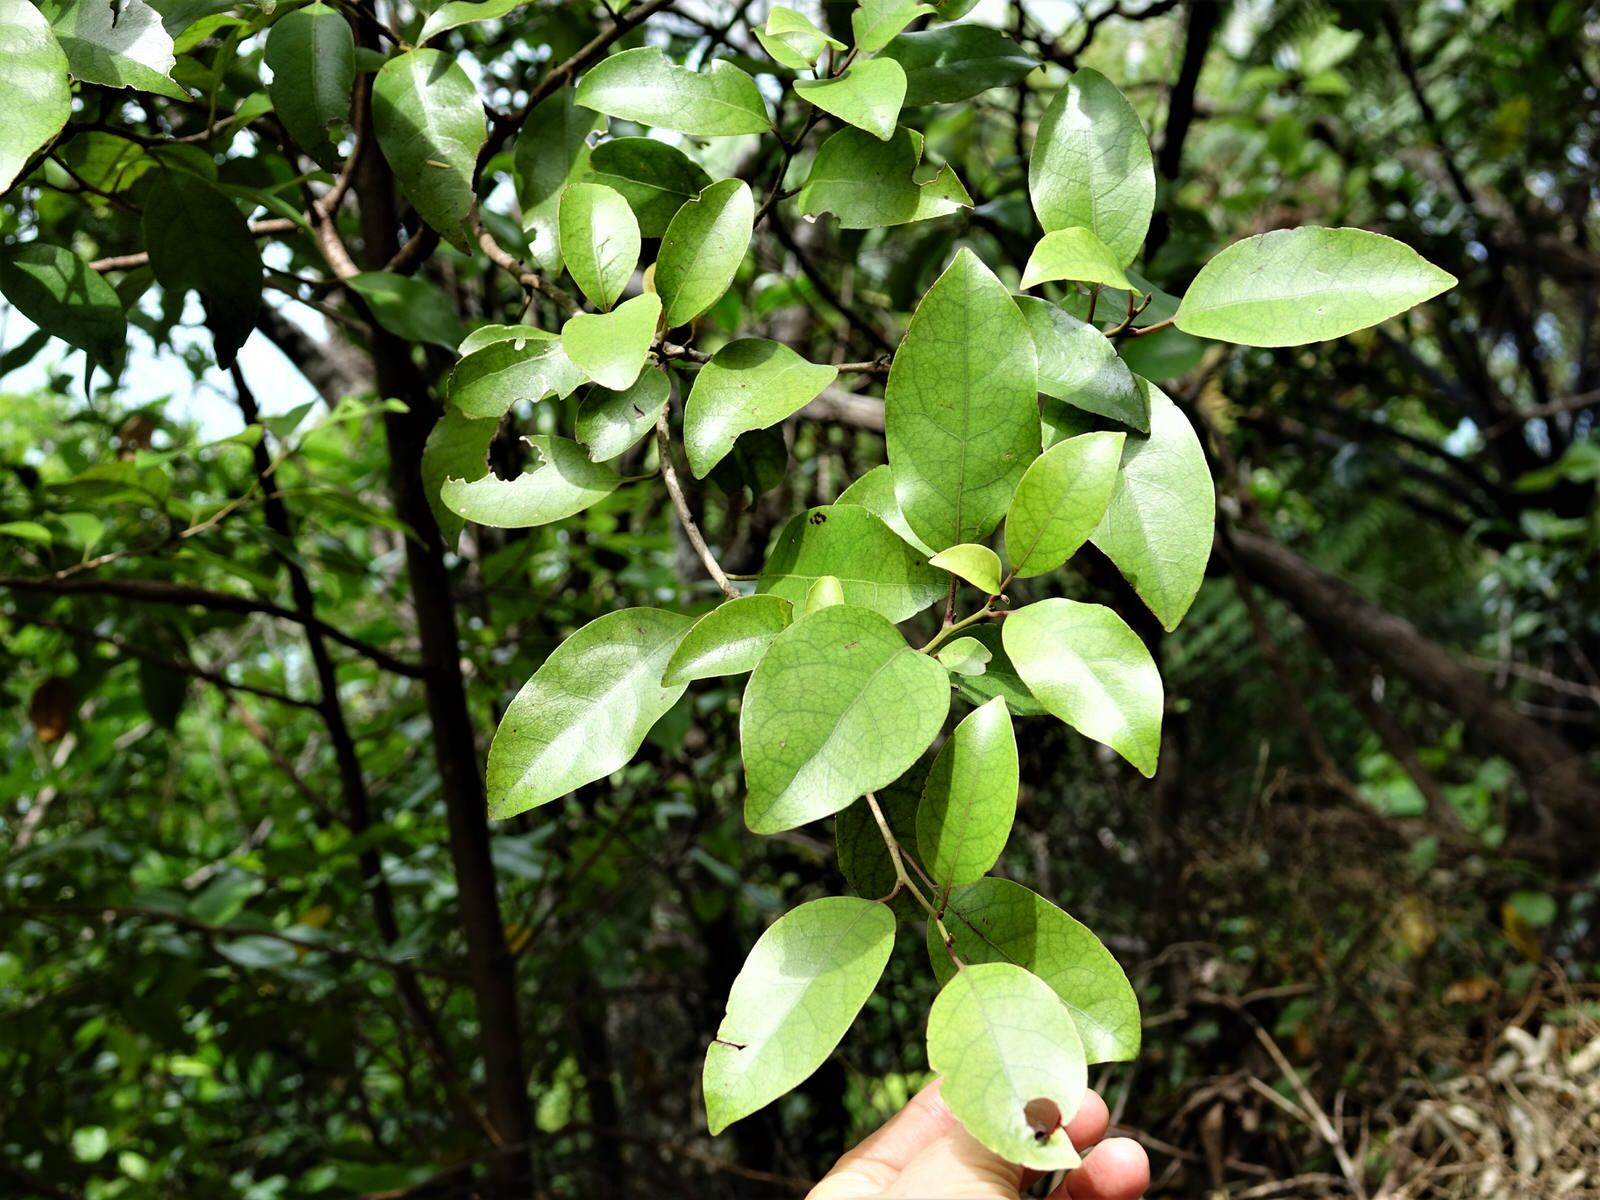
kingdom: Plantae
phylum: Tracheophyta
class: Magnoliopsida
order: Laurales
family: Lauraceae
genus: Litsea
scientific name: Litsea calicaris
